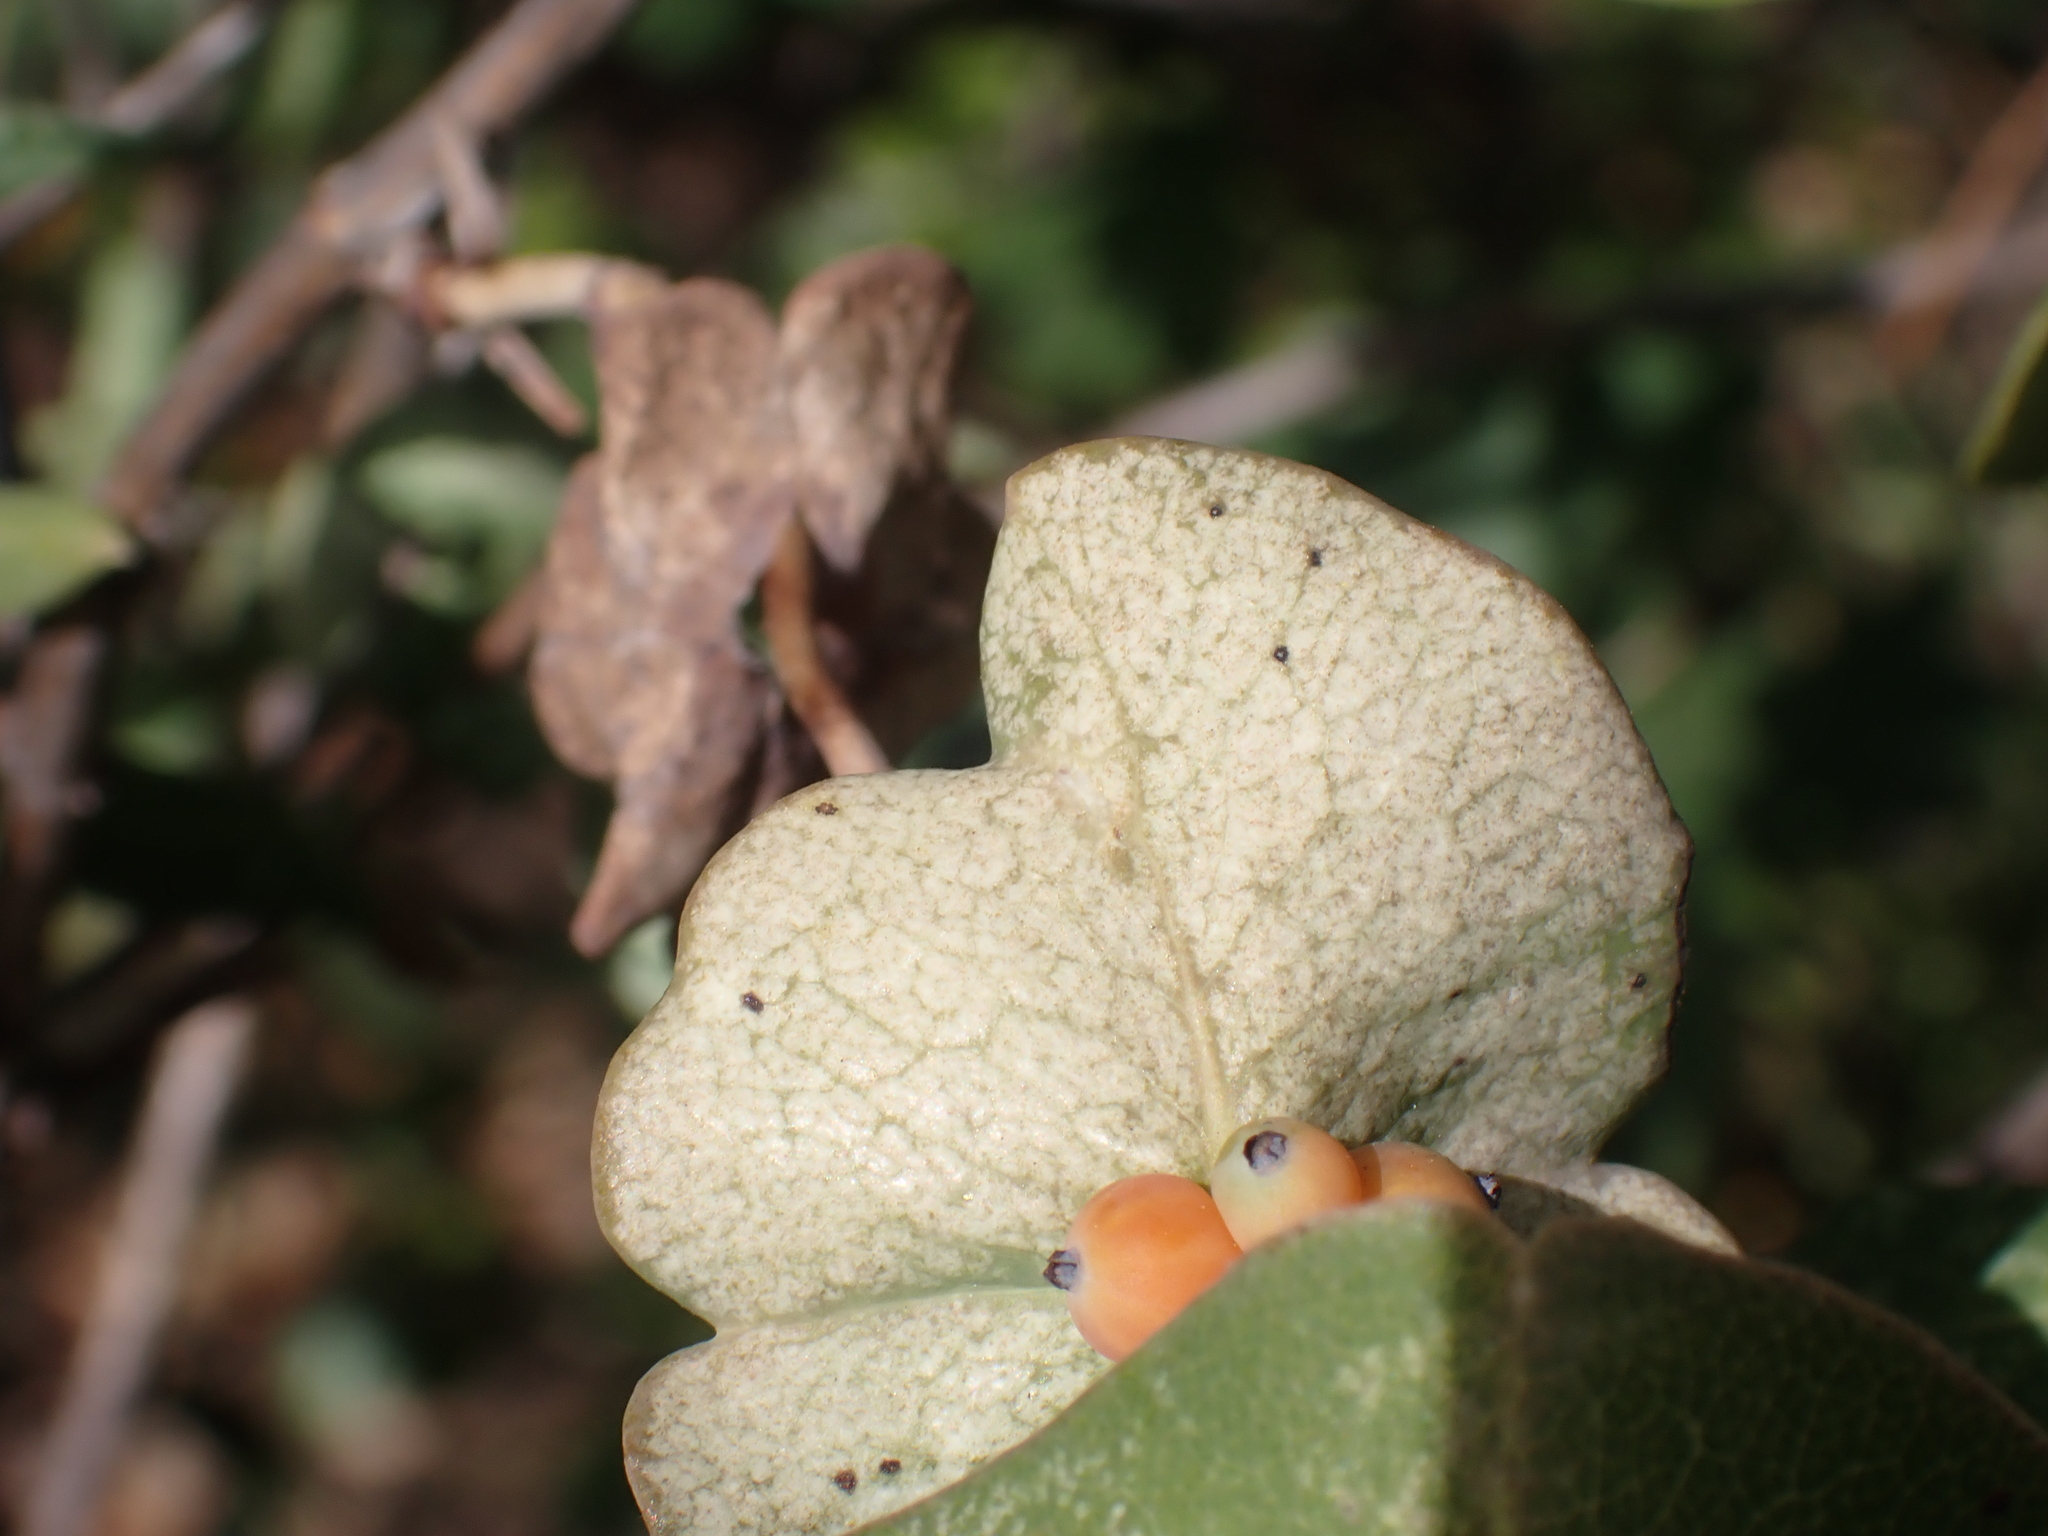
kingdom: Plantae
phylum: Tracheophyta
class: Magnoliopsida
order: Dipsacales
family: Caprifoliaceae
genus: Lonicera
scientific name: Lonicera implexa
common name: Minorca honeysuckle
